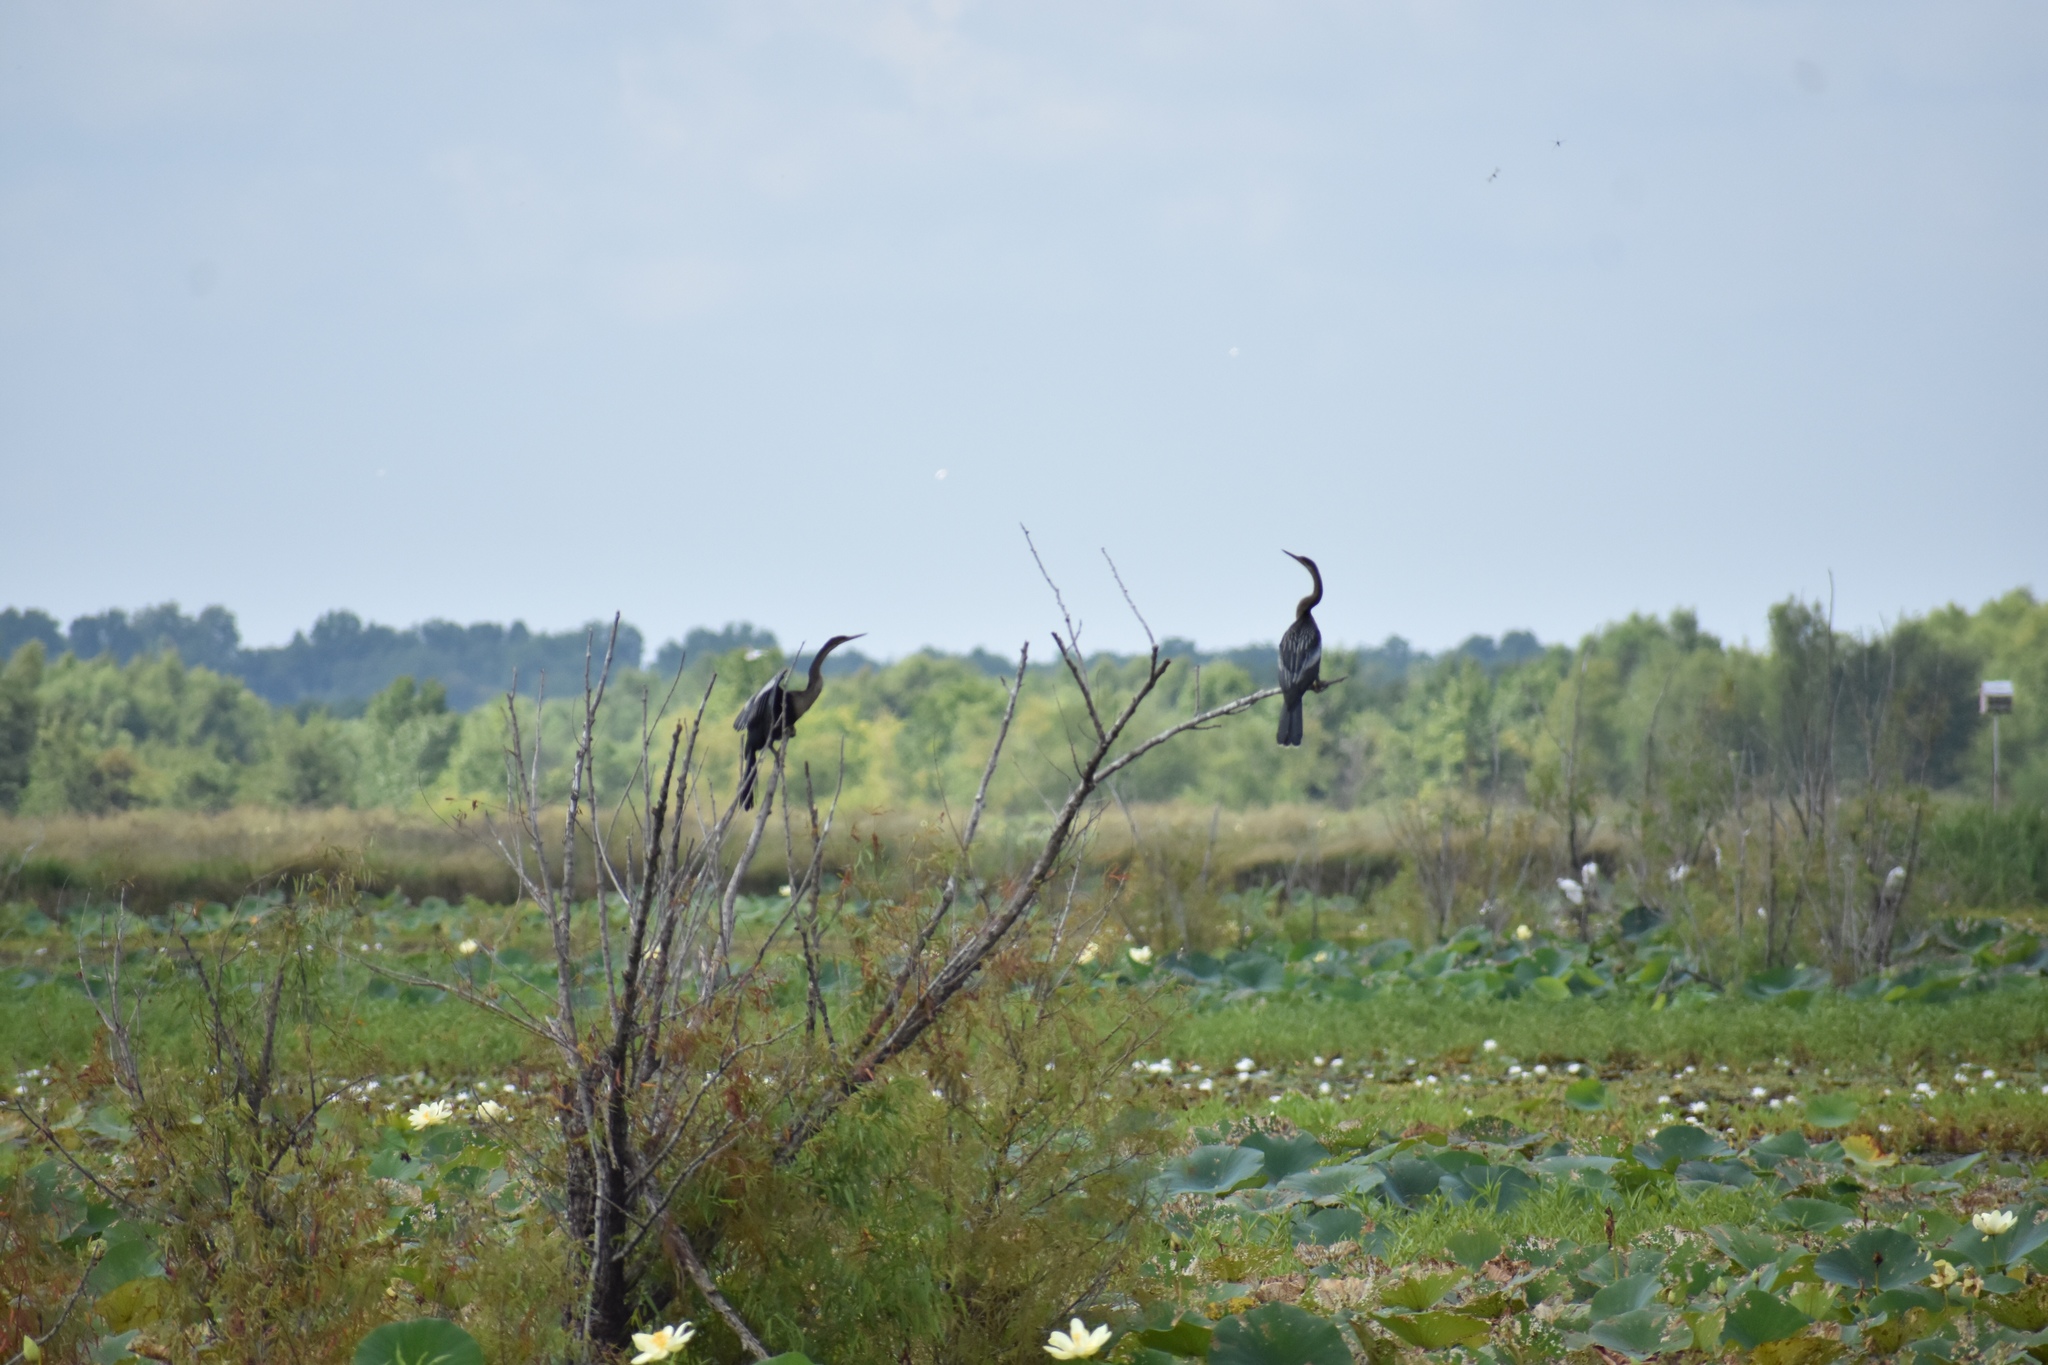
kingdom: Animalia
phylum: Chordata
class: Aves
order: Suliformes
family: Anhingidae
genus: Anhinga
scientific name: Anhinga anhinga
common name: Anhinga
